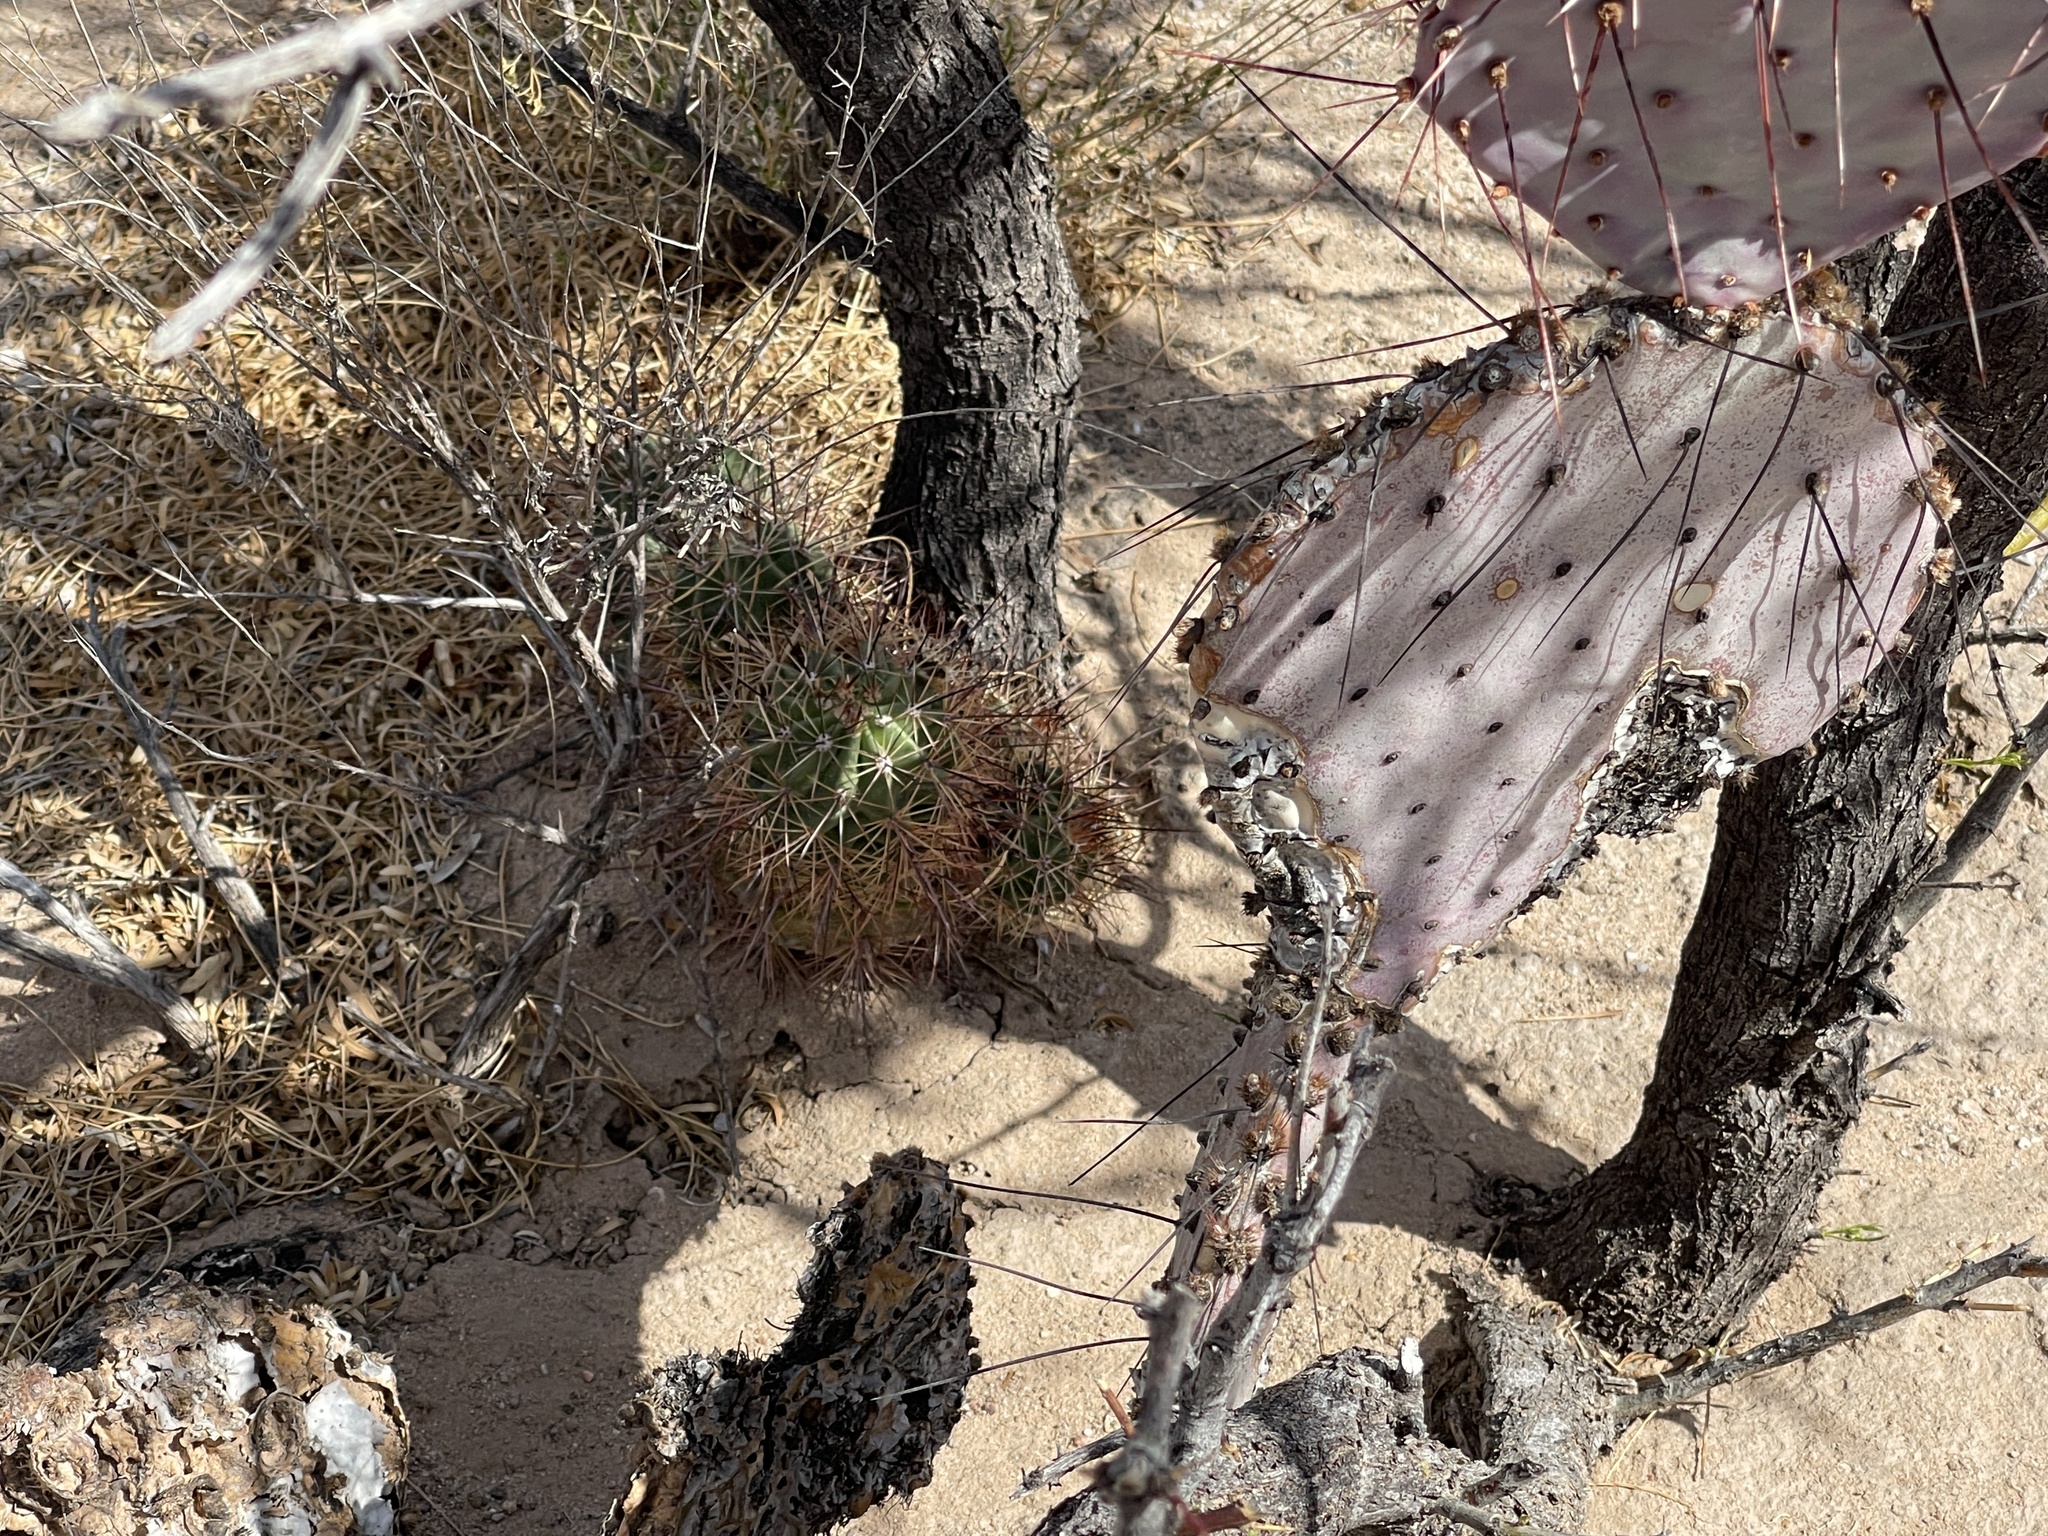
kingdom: Plantae
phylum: Tracheophyta
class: Magnoliopsida
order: Caryophyllales
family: Cactaceae
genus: Echinocereus
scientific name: Echinocereus coccineus
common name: Scarlet hedgehog cactus
